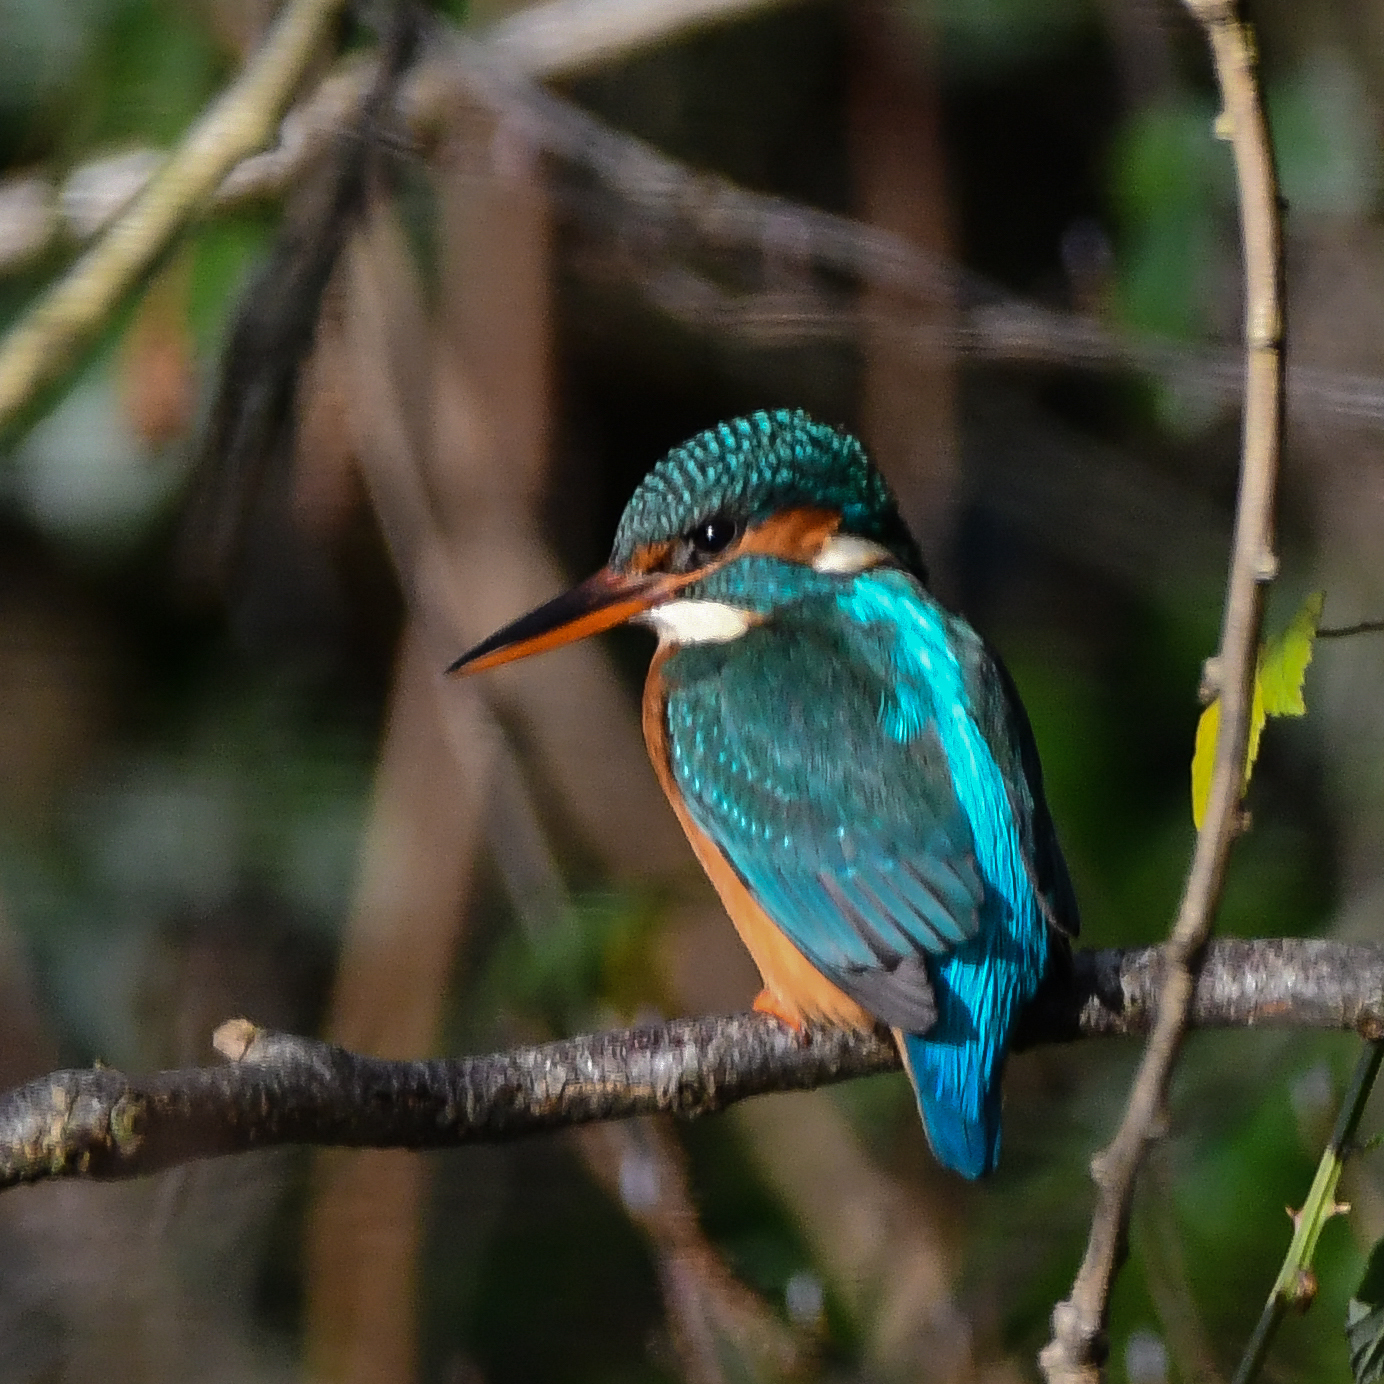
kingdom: Animalia
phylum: Chordata
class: Aves
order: Coraciiformes
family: Alcedinidae
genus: Alcedo
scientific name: Alcedo atthis
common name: Common kingfisher
